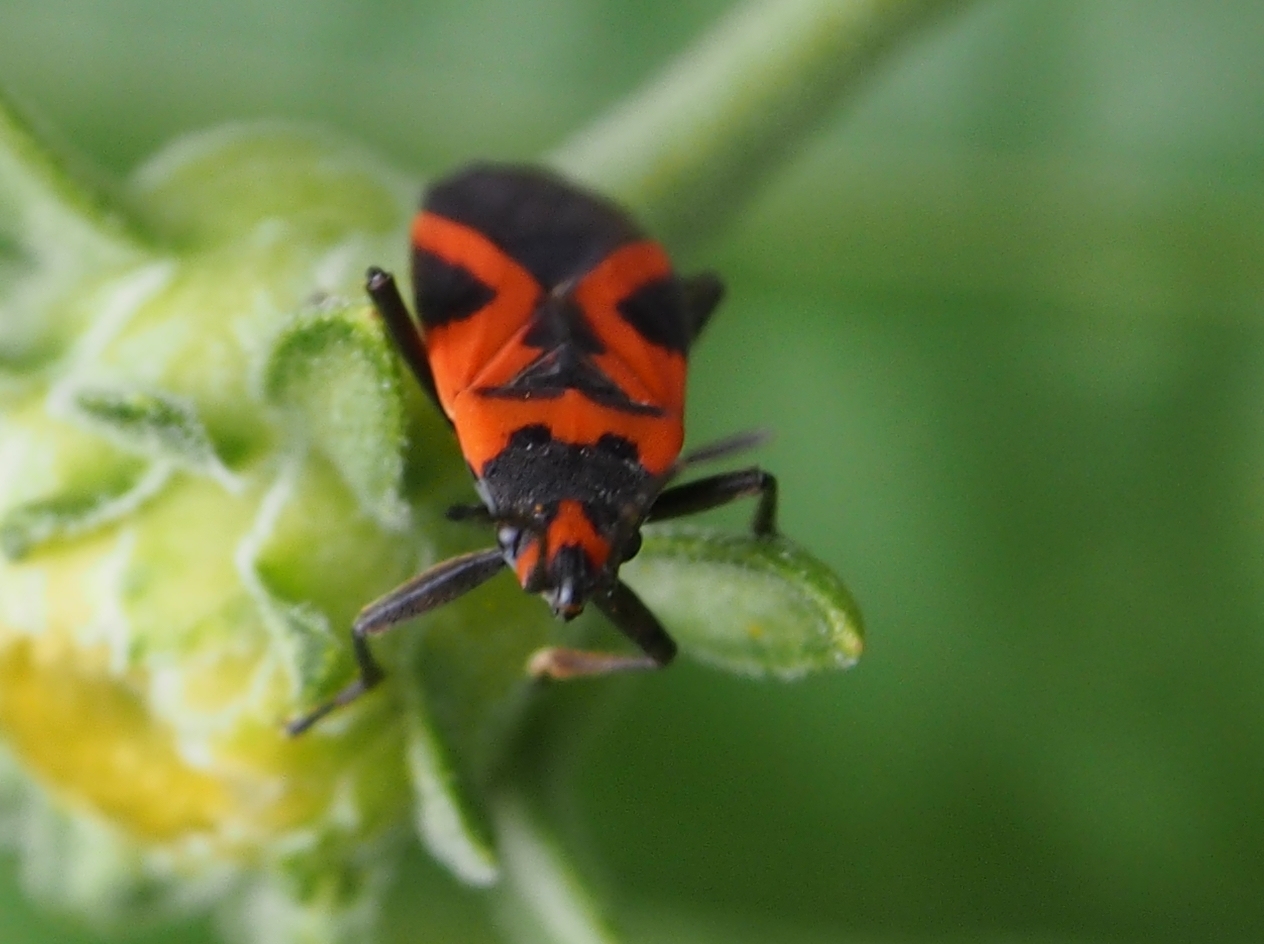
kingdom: Animalia
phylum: Arthropoda
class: Insecta
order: Hemiptera
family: Lygaeidae
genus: Lygaeus
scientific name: Lygaeus turcicus
